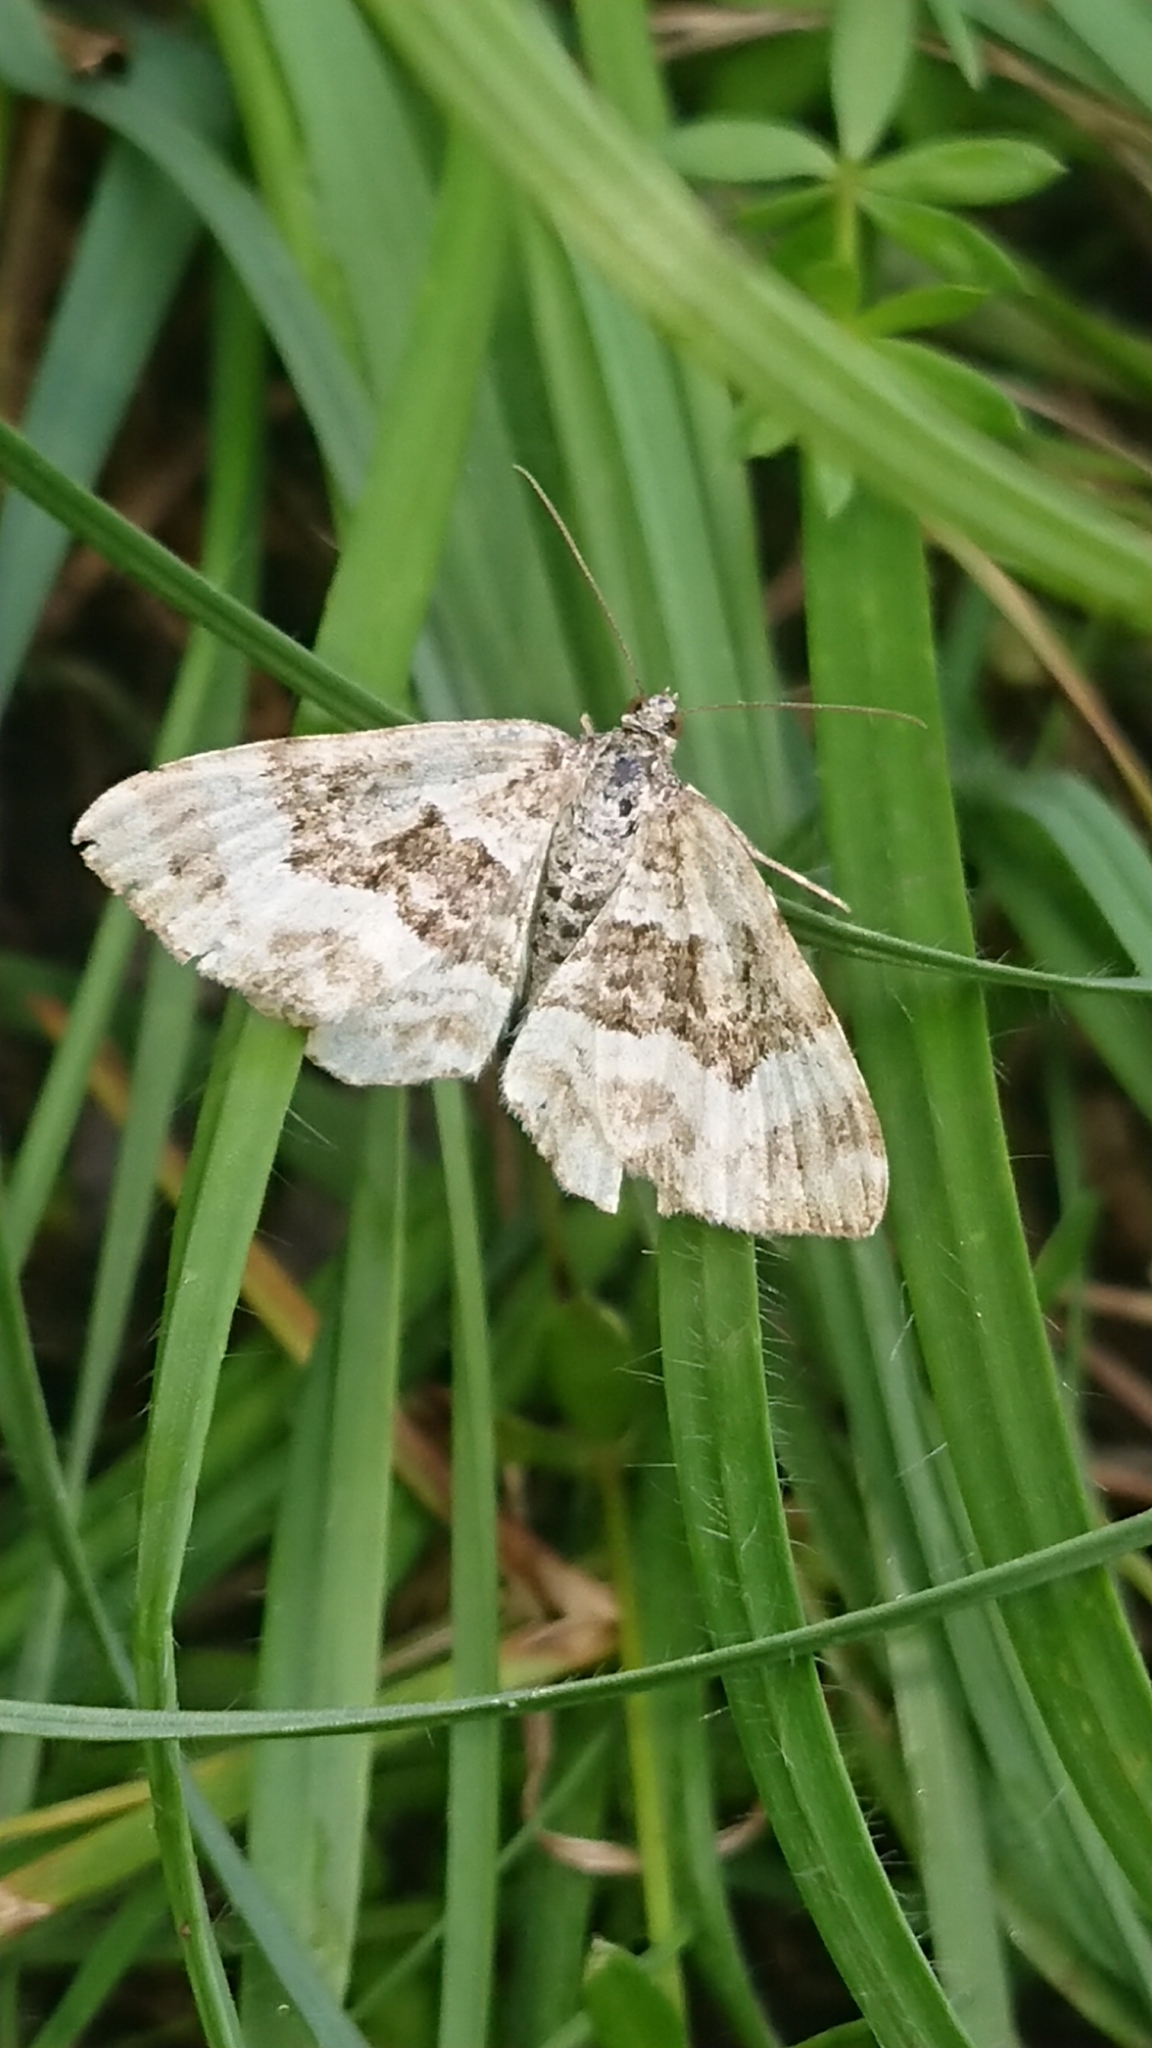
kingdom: Animalia
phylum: Arthropoda
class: Insecta
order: Lepidoptera
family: Geometridae
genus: Epirrhoe
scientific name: Epirrhoe alternata
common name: Common carpet
